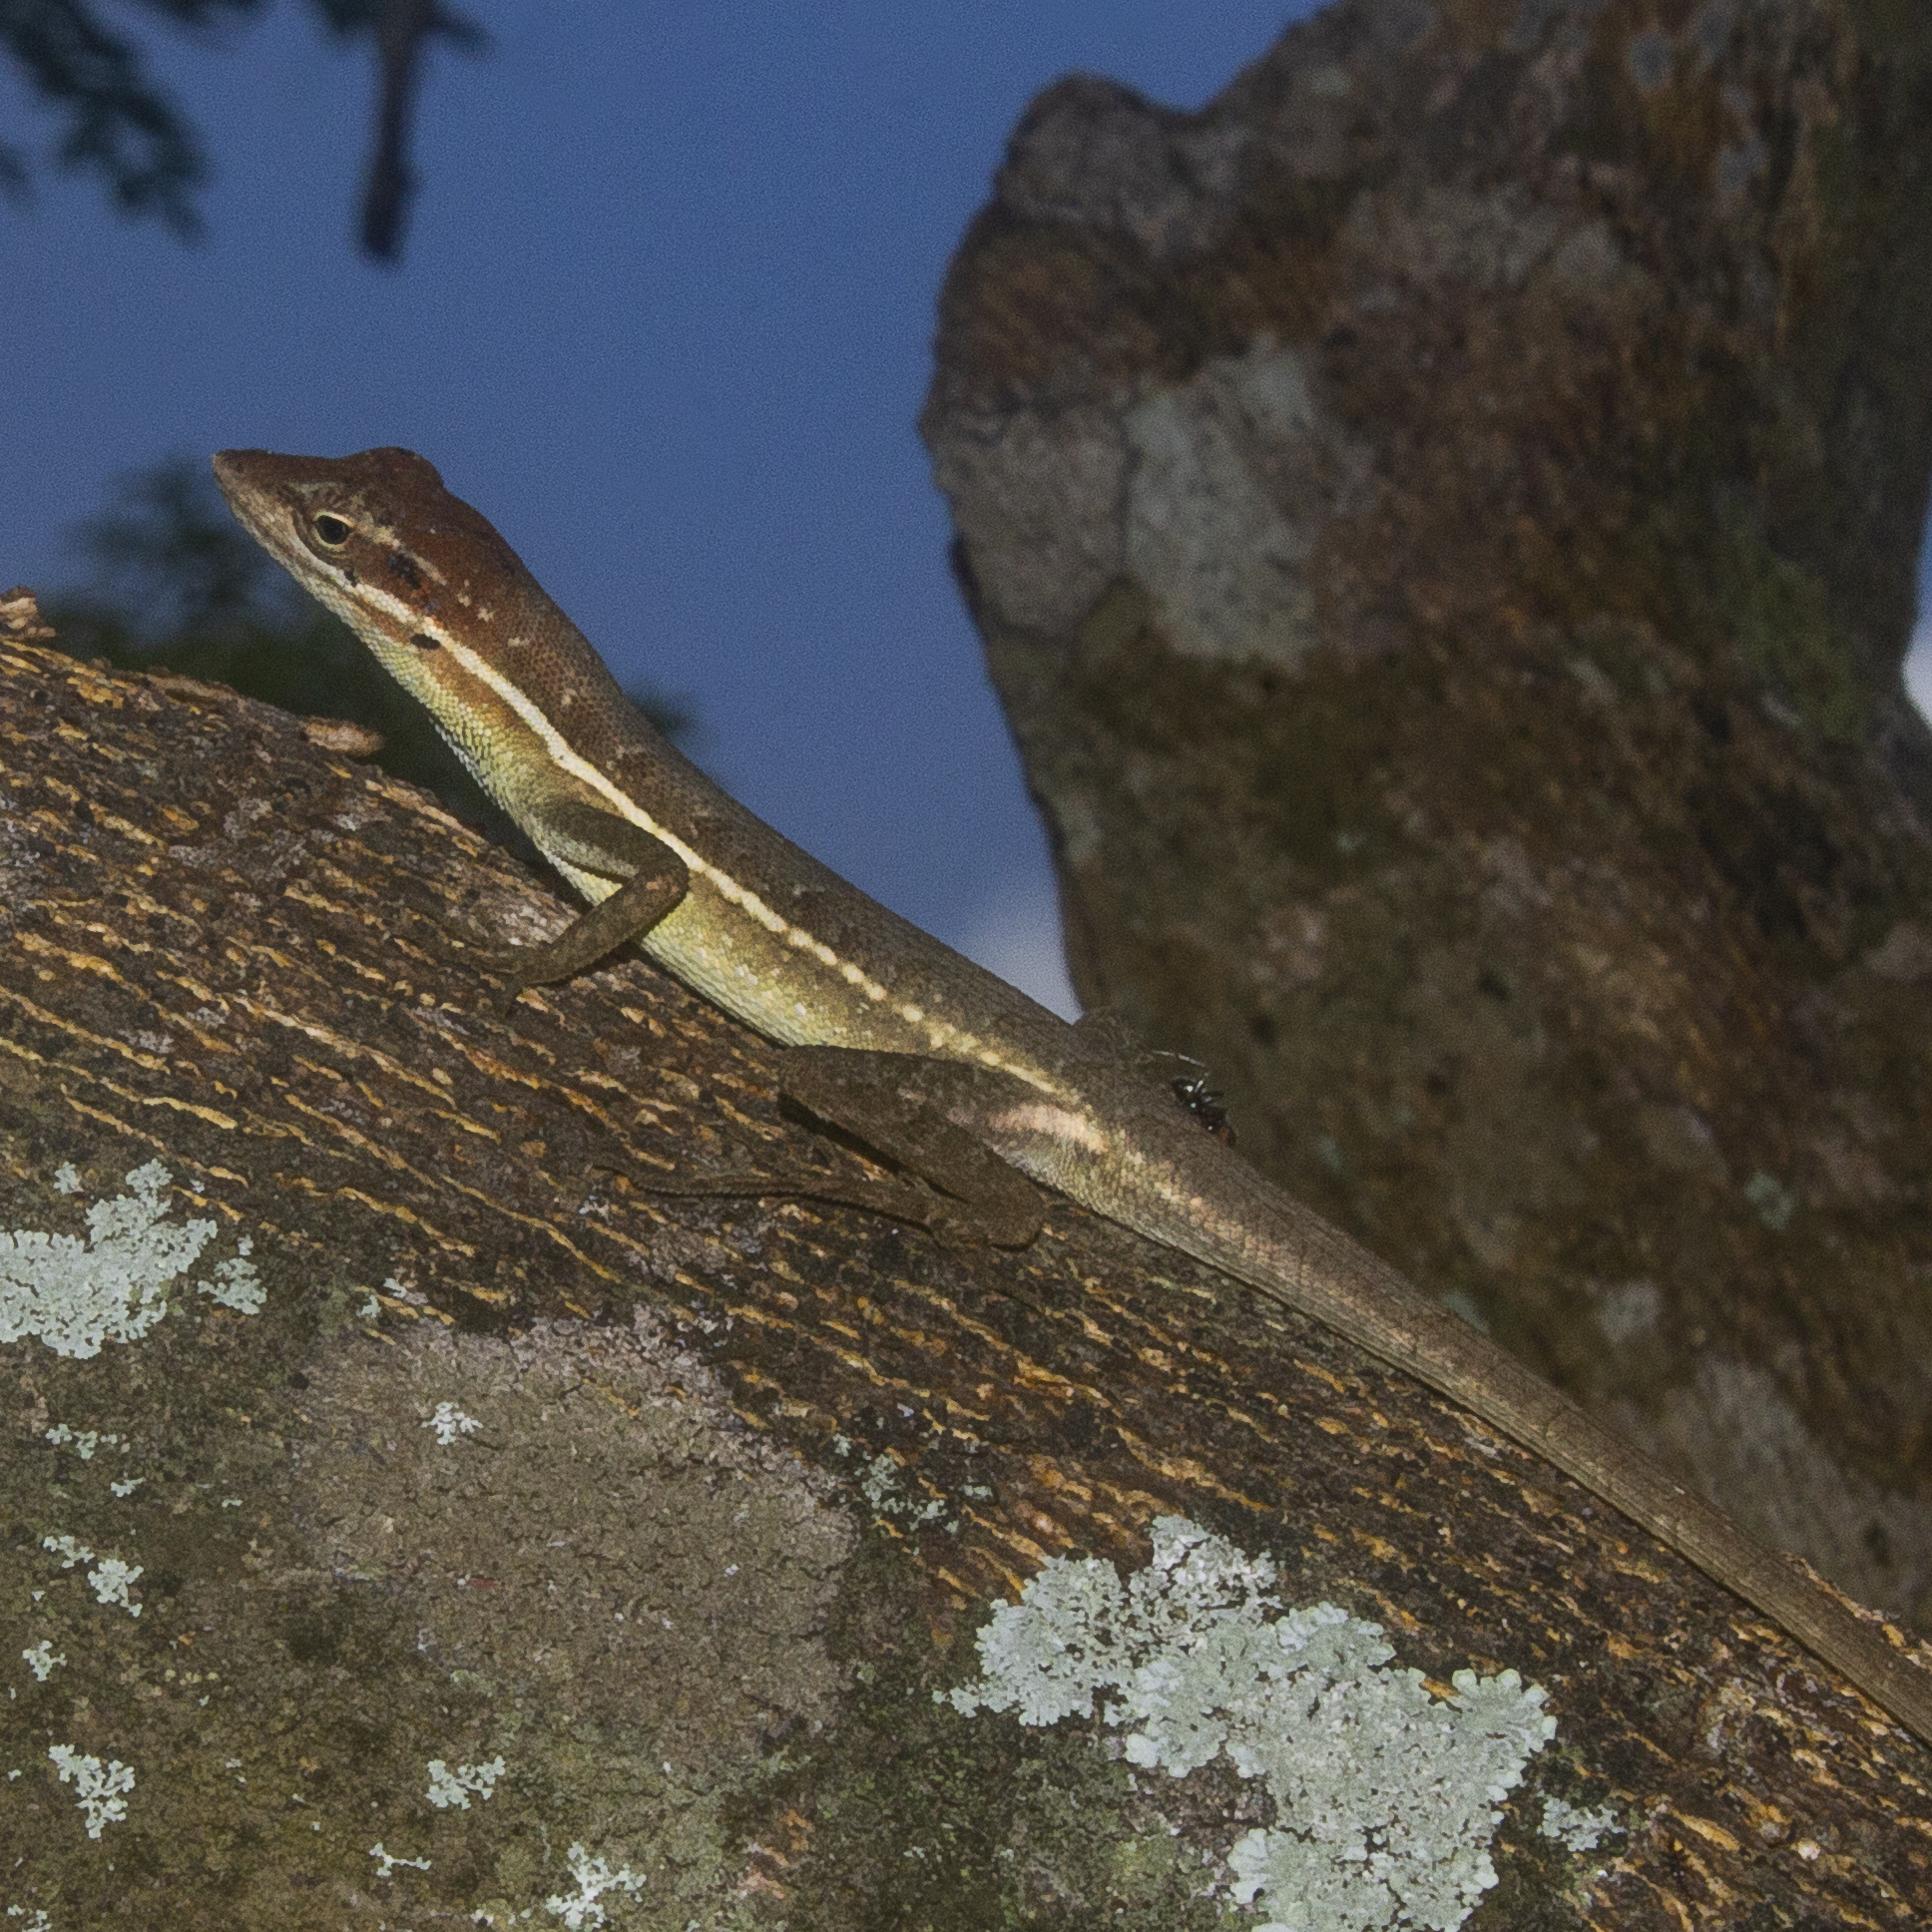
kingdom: Animalia
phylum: Chordata
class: Squamata
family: Dactyloidae
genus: Anolis
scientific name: Anolis auratus
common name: Grass anole
